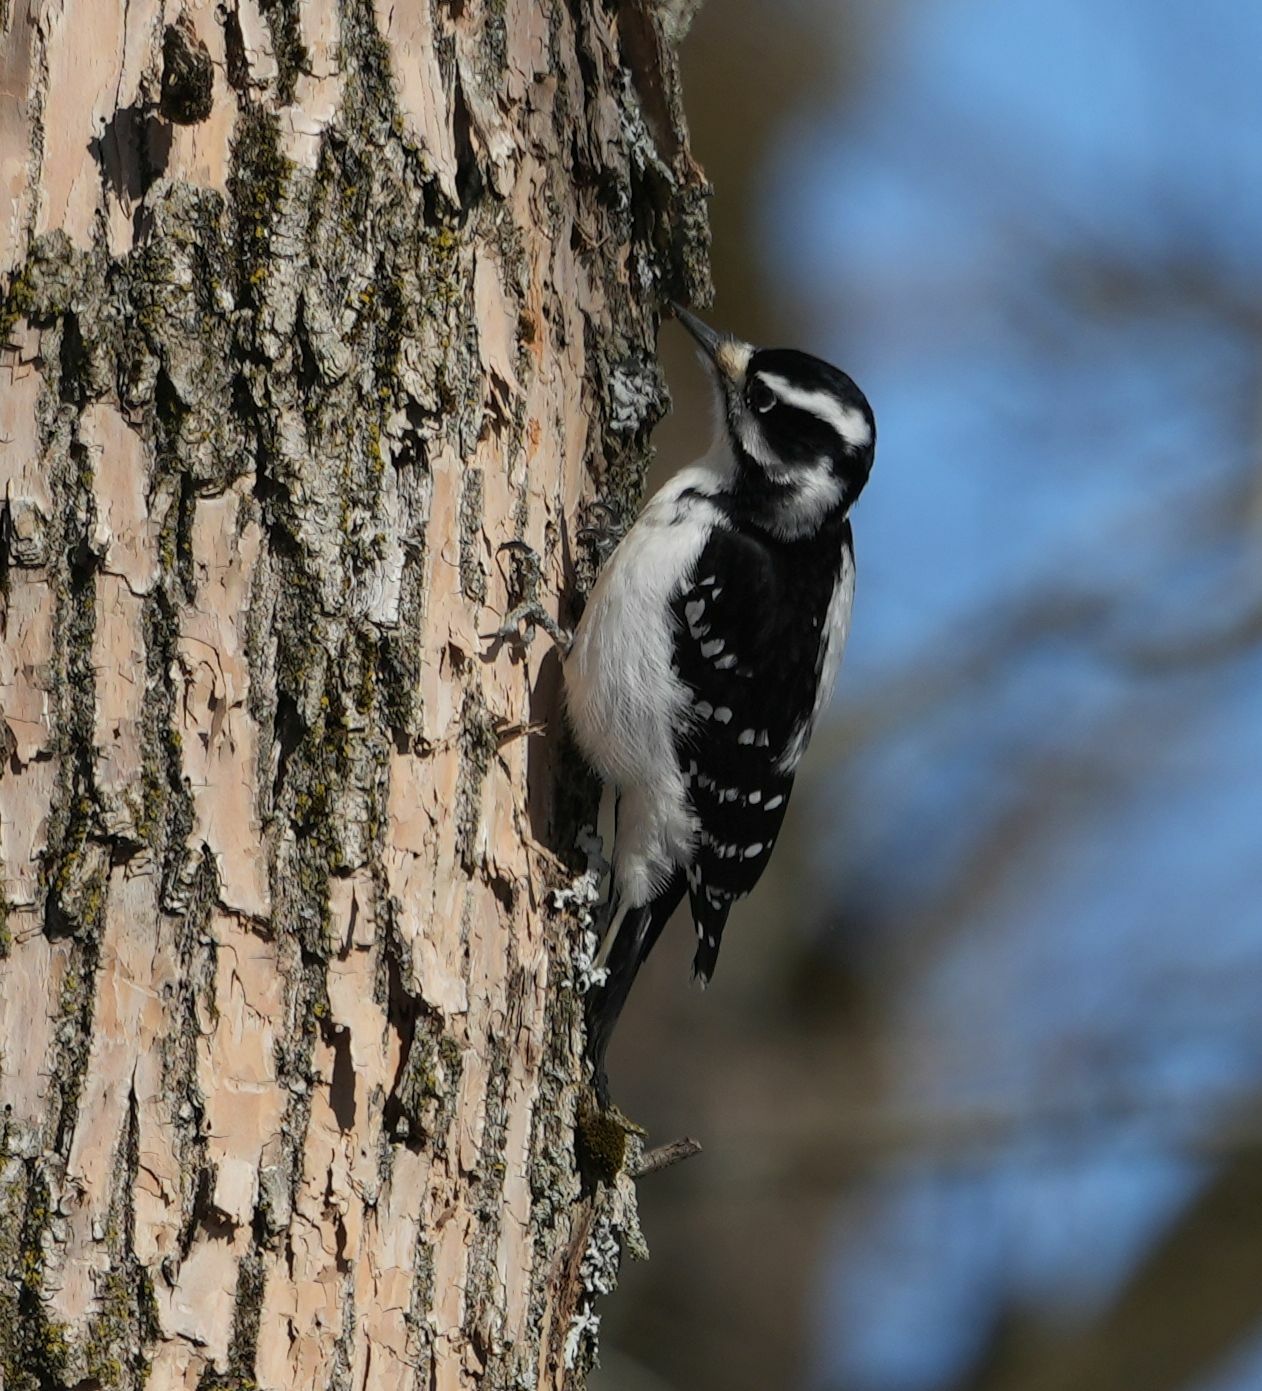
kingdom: Animalia
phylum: Chordata
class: Aves
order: Piciformes
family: Picidae
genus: Leuconotopicus
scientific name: Leuconotopicus villosus
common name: Hairy woodpecker
